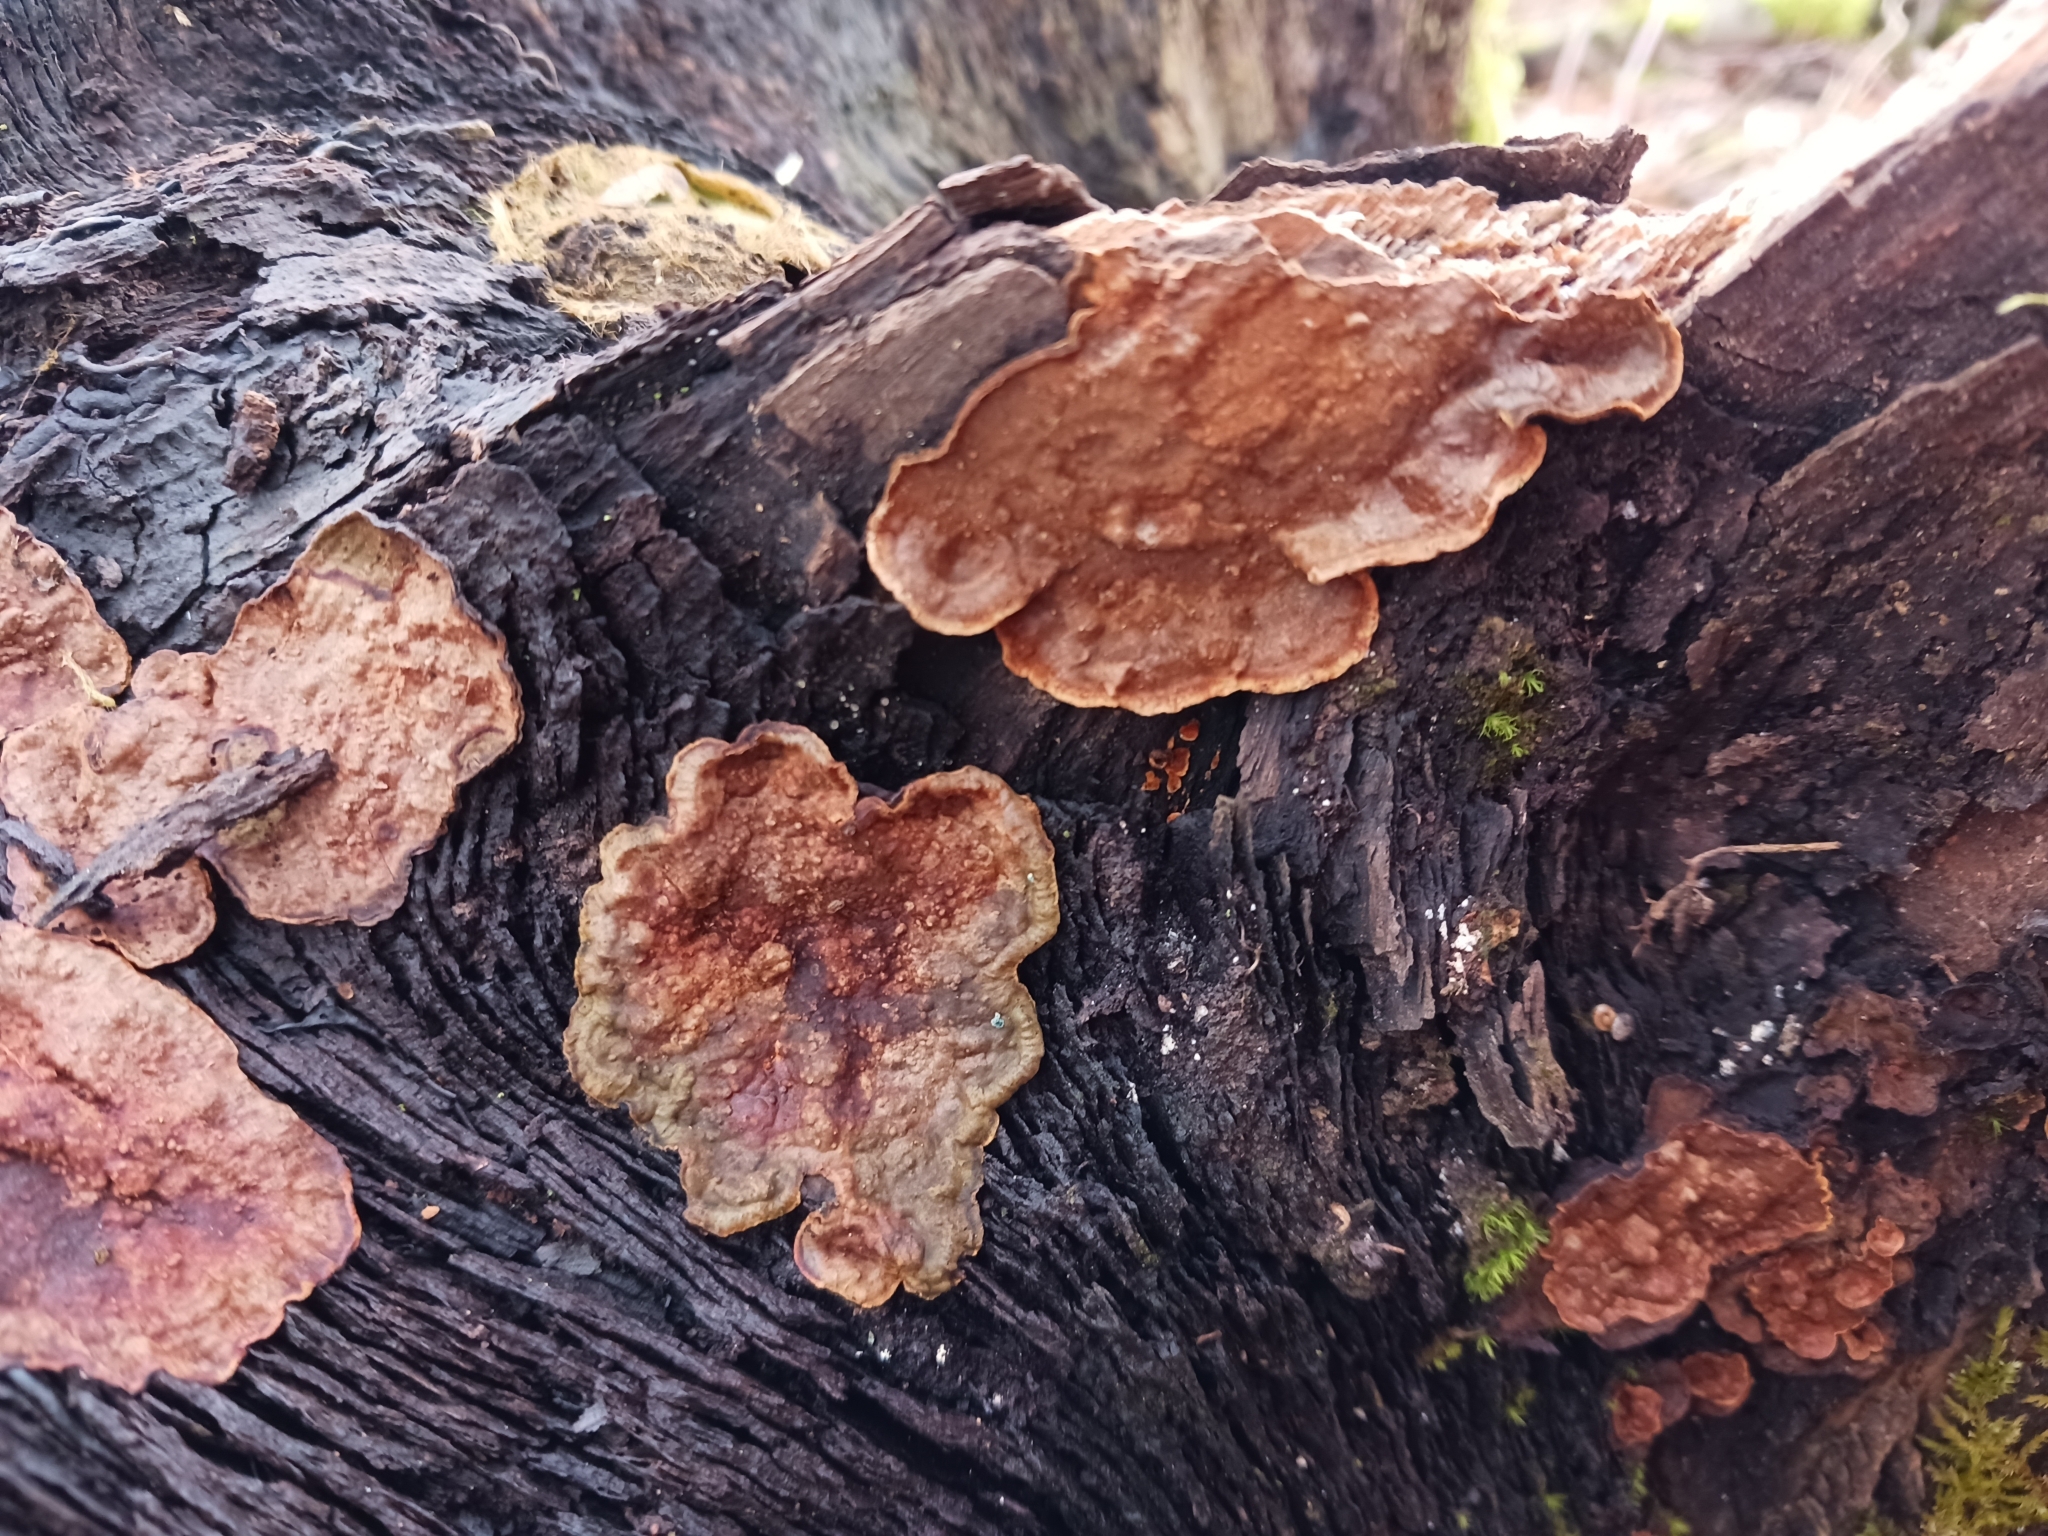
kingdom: Fungi
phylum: Basidiomycota
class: Agaricomycetes
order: Hymenochaetales
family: Hymenochaetaceae
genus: Hymenochaete
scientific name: Hymenochaete rubiginosa
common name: Oak curtain crust
